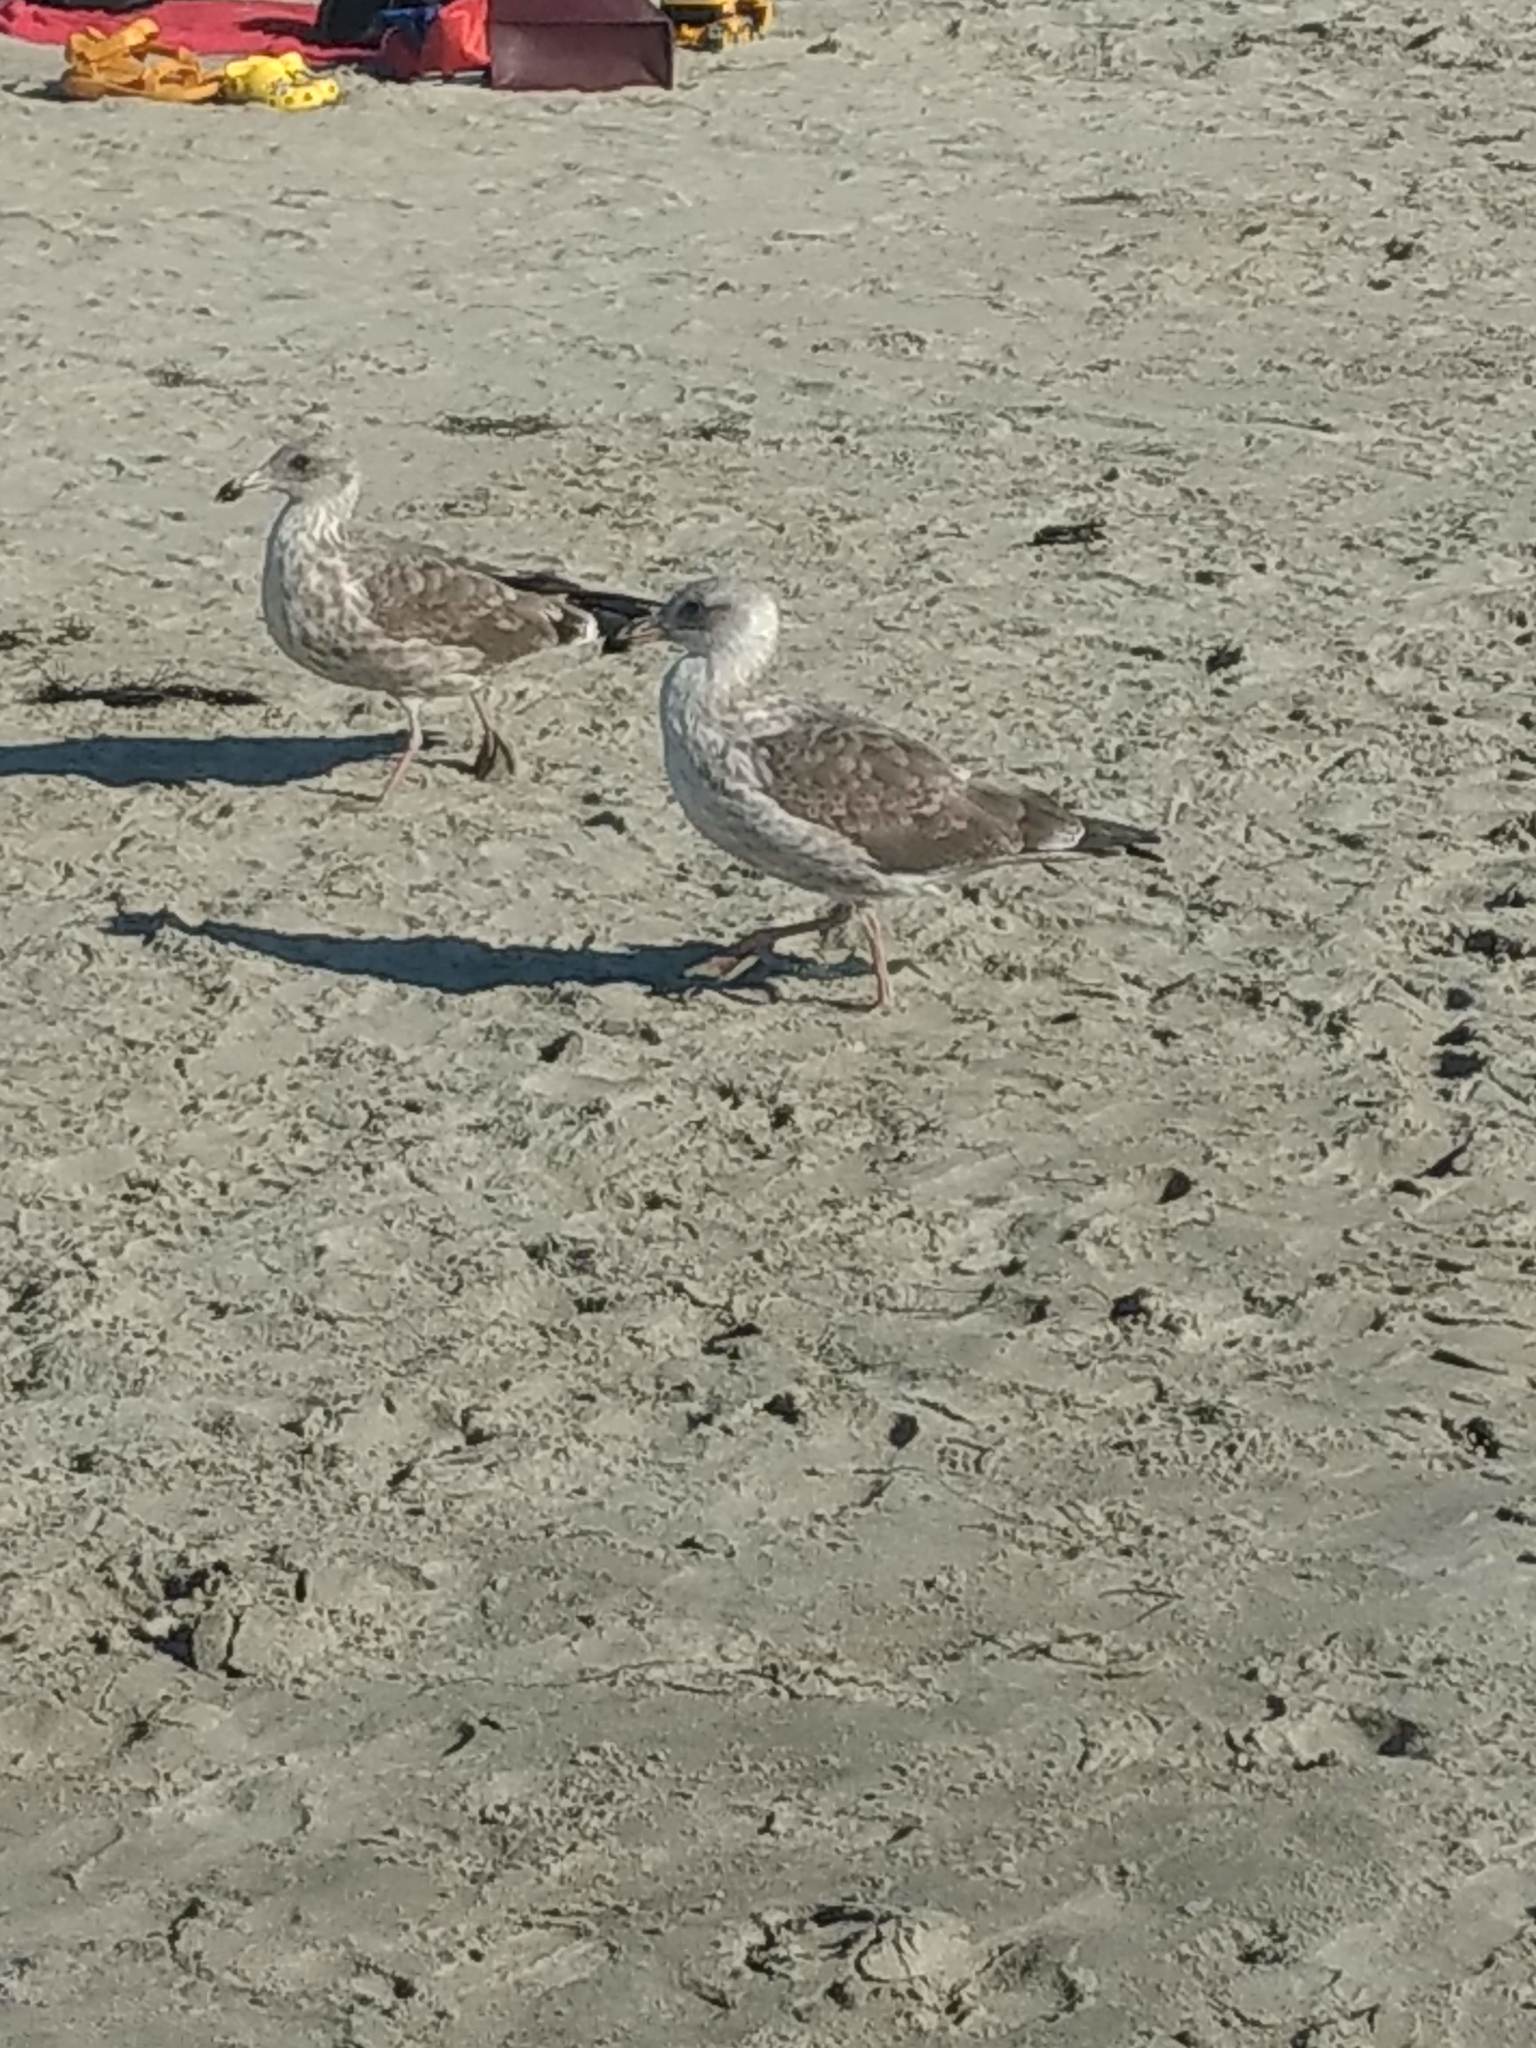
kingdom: Animalia
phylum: Chordata
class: Aves
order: Charadriiformes
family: Laridae
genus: Larus
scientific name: Larus occidentalis
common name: Western gull
